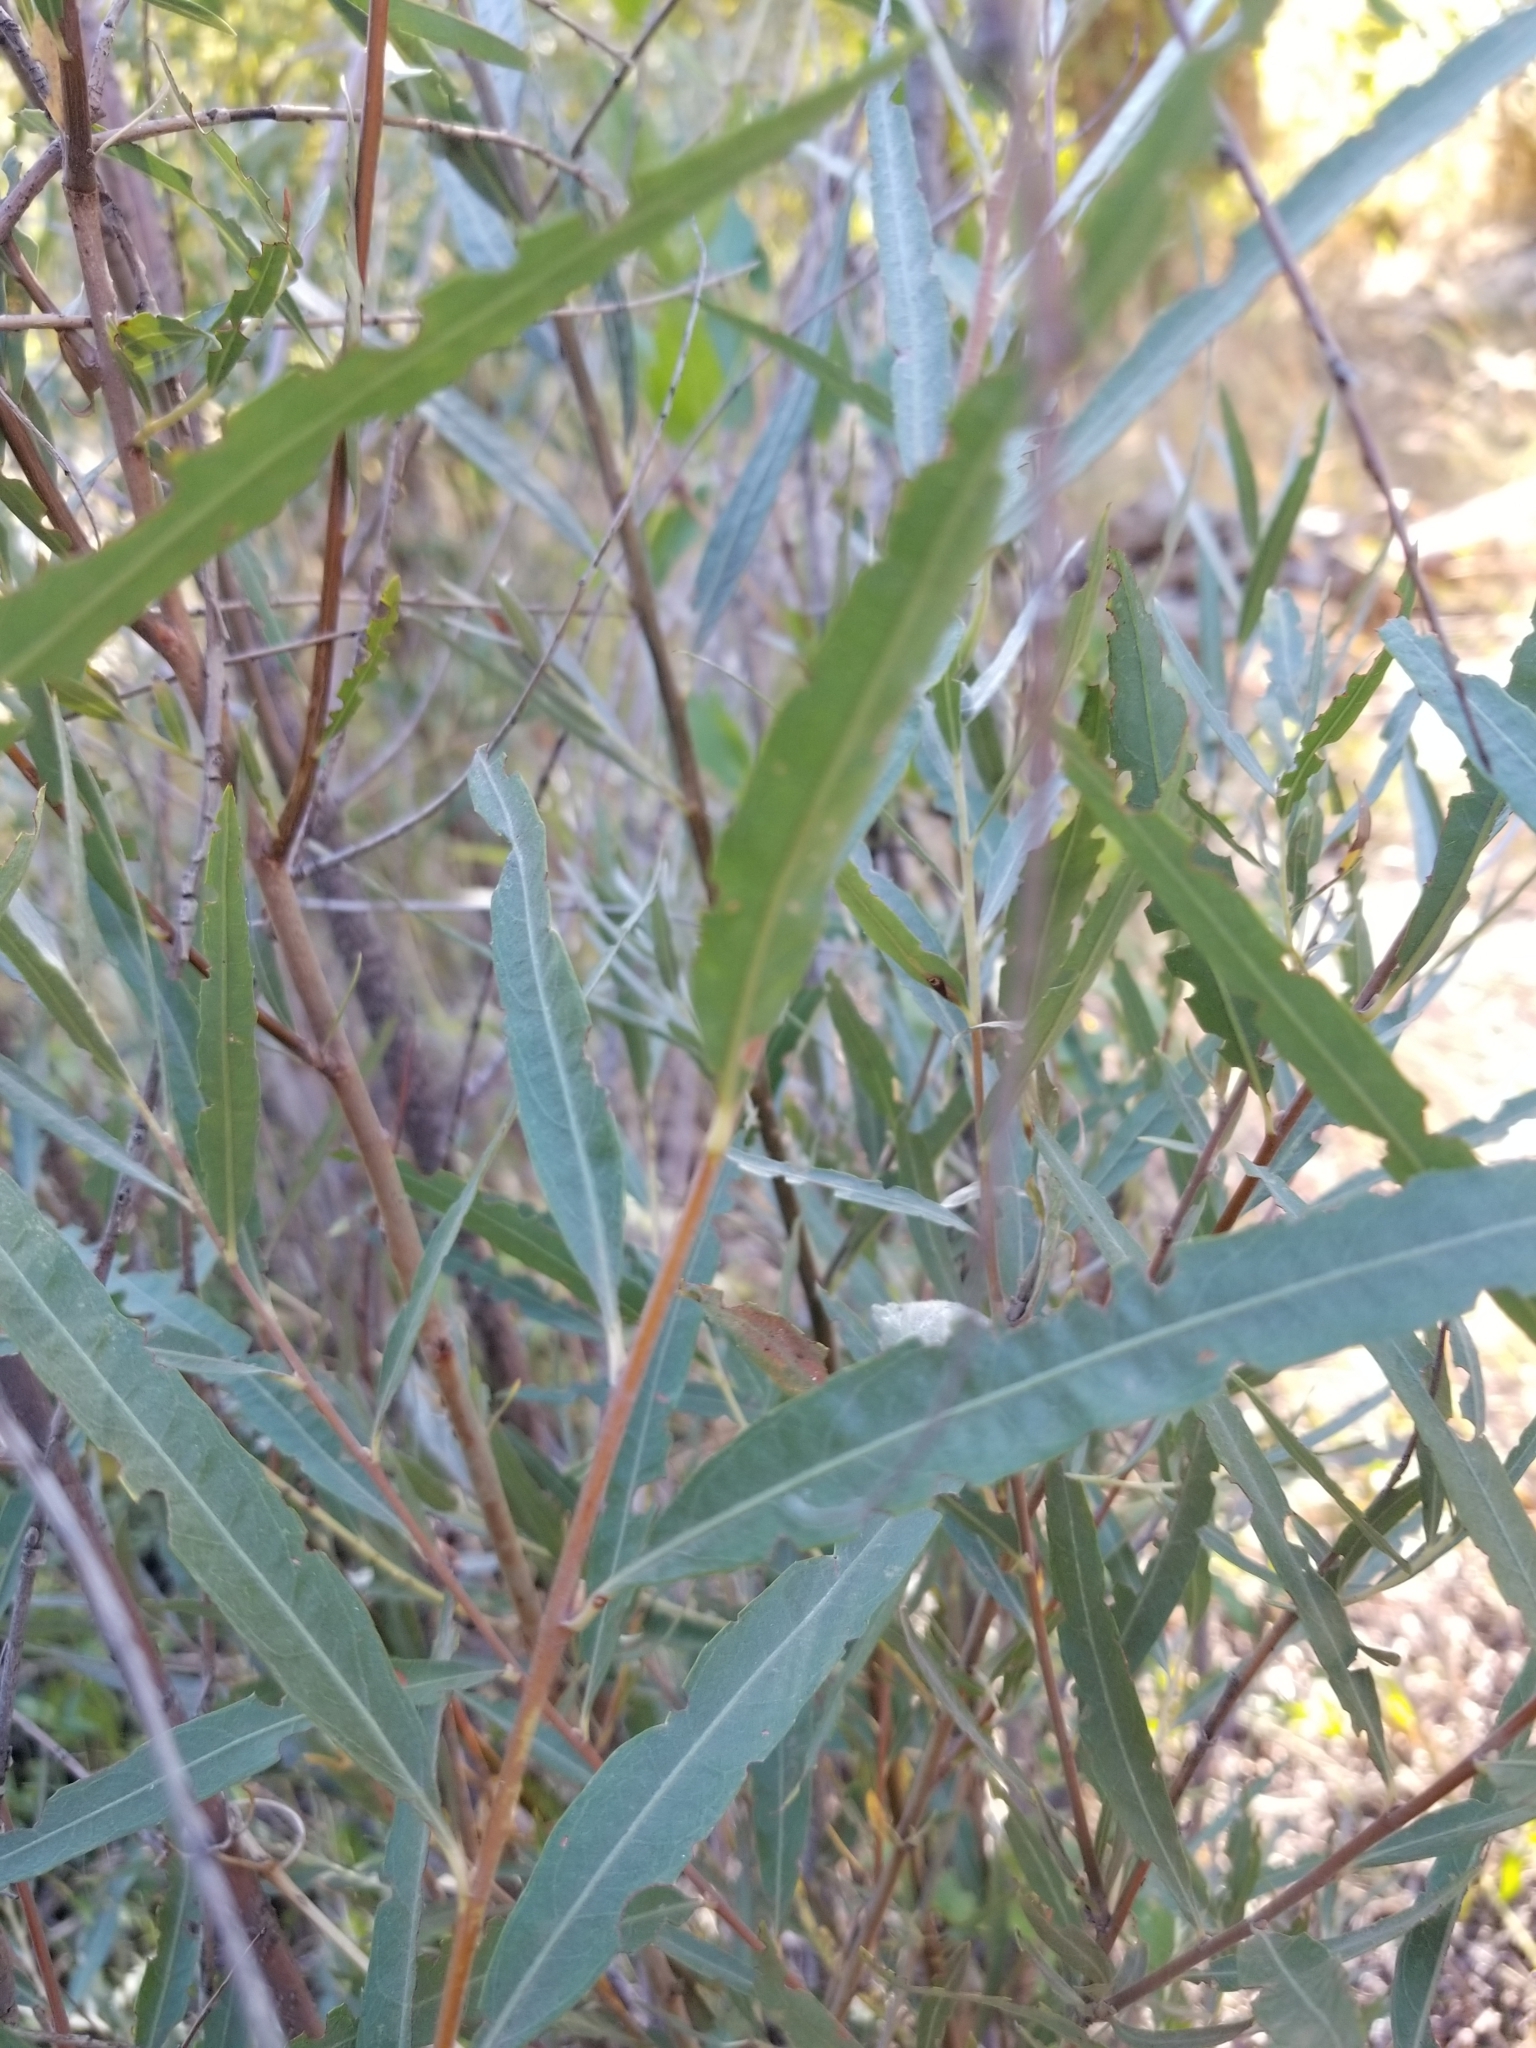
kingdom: Plantae
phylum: Tracheophyta
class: Magnoliopsida
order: Malpighiales
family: Salicaceae
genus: Salix
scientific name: Salix exigua
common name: Coyote willow
